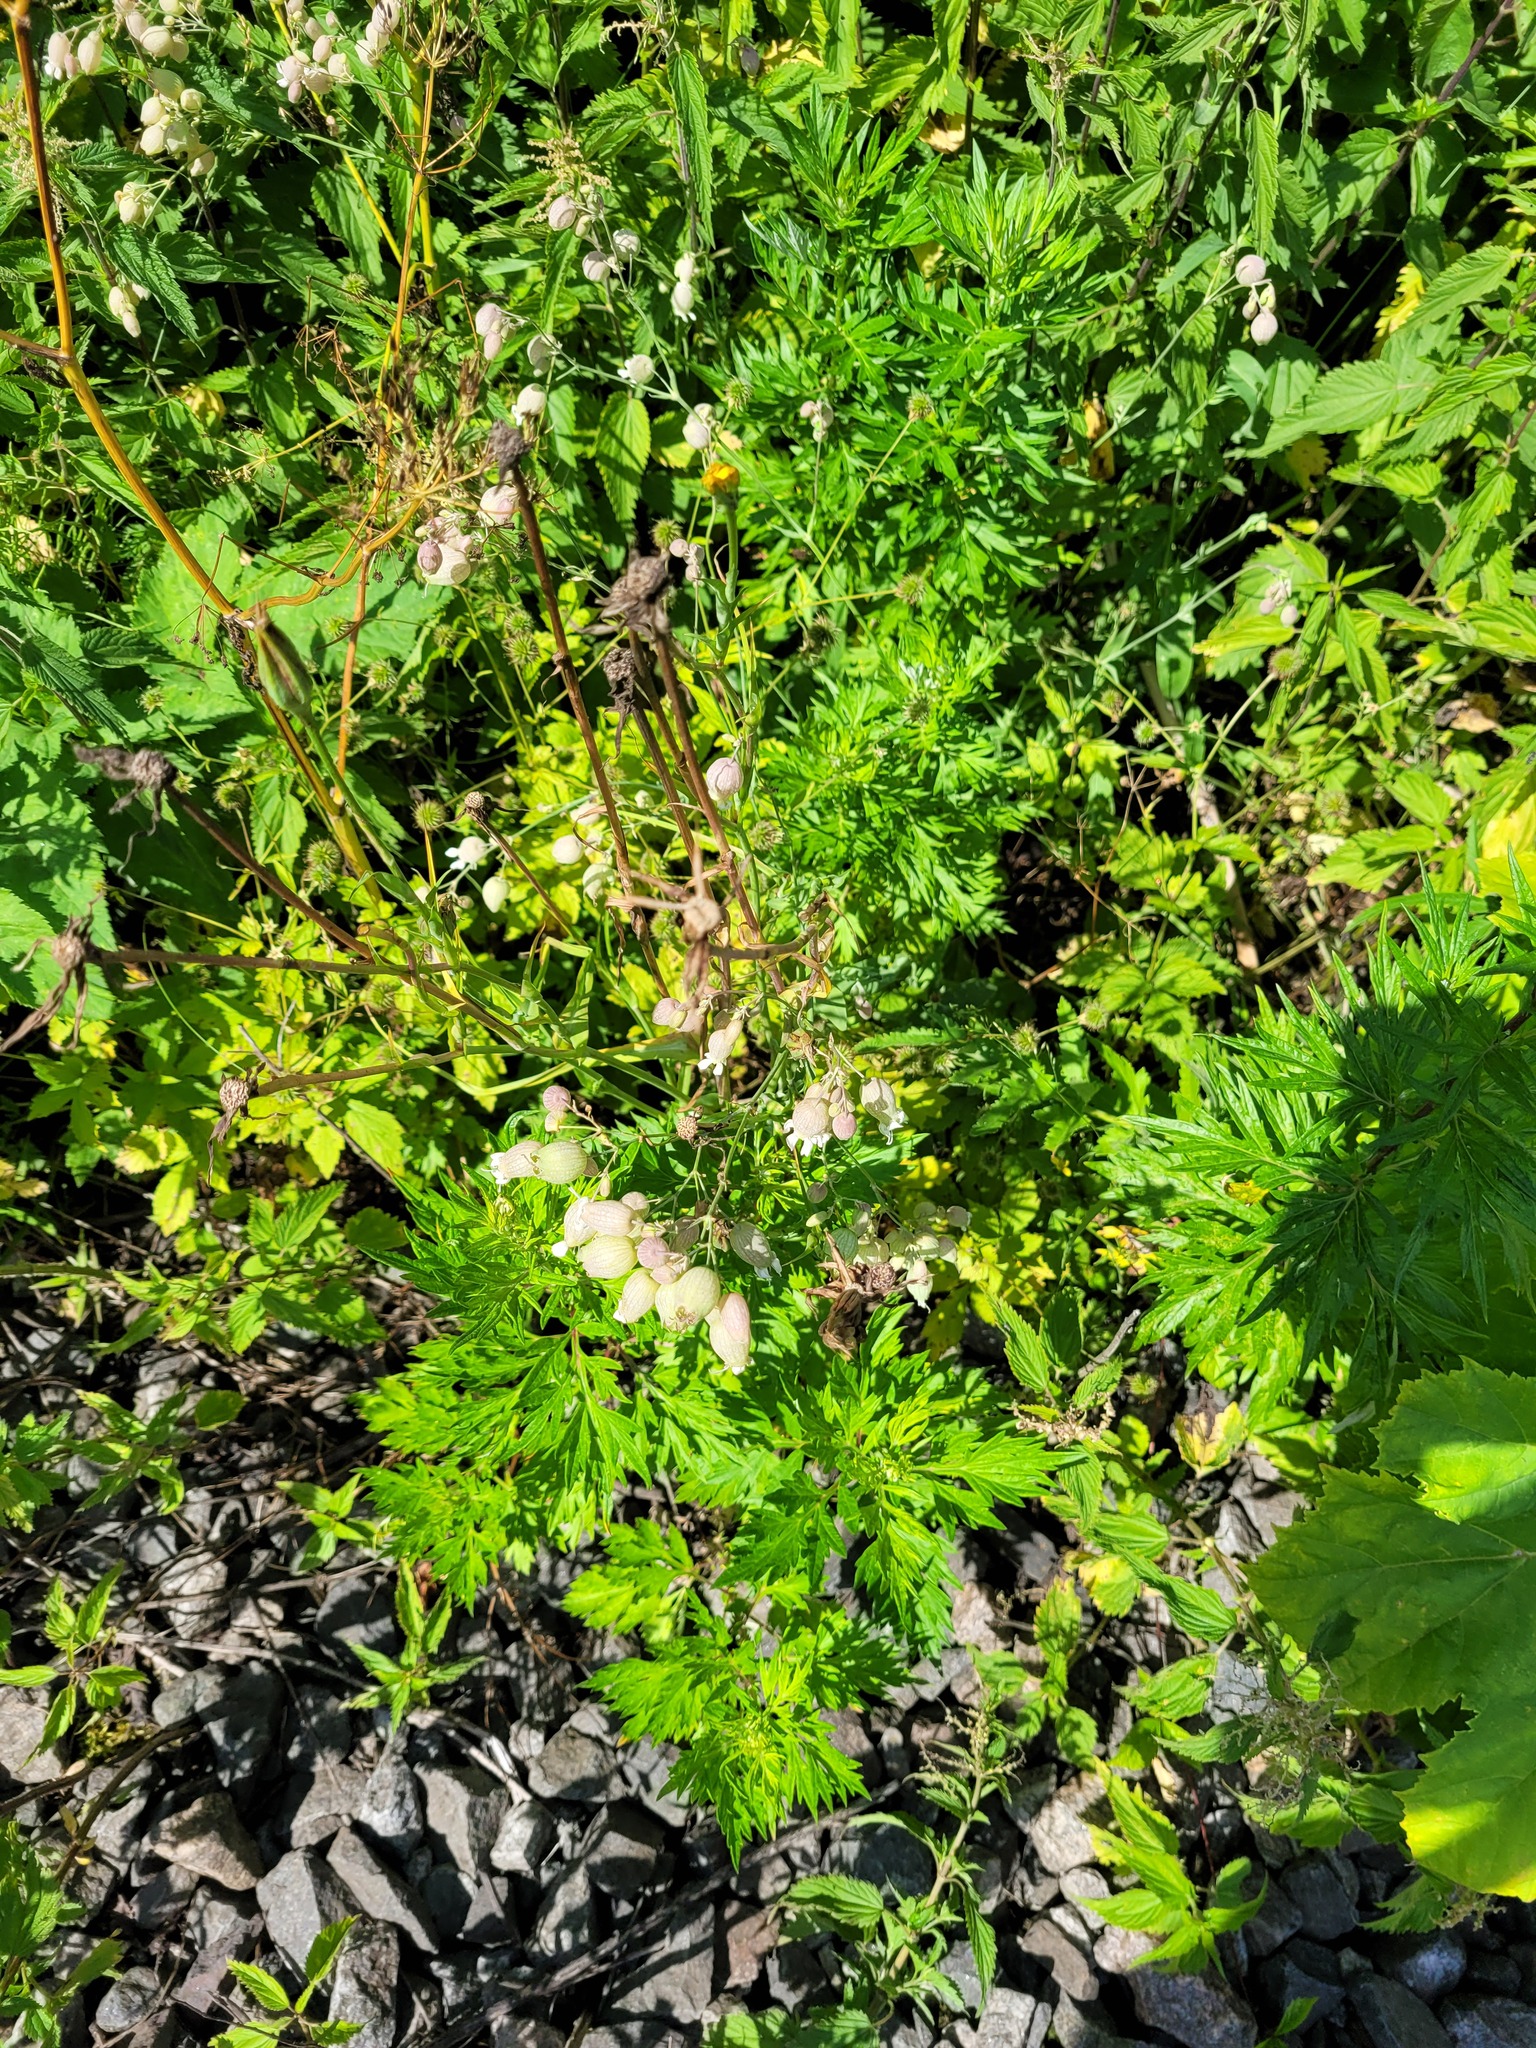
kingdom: Plantae
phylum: Tracheophyta
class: Magnoliopsida
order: Caryophyllales
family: Caryophyllaceae
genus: Silene
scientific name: Silene vulgaris
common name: Bladder campion
